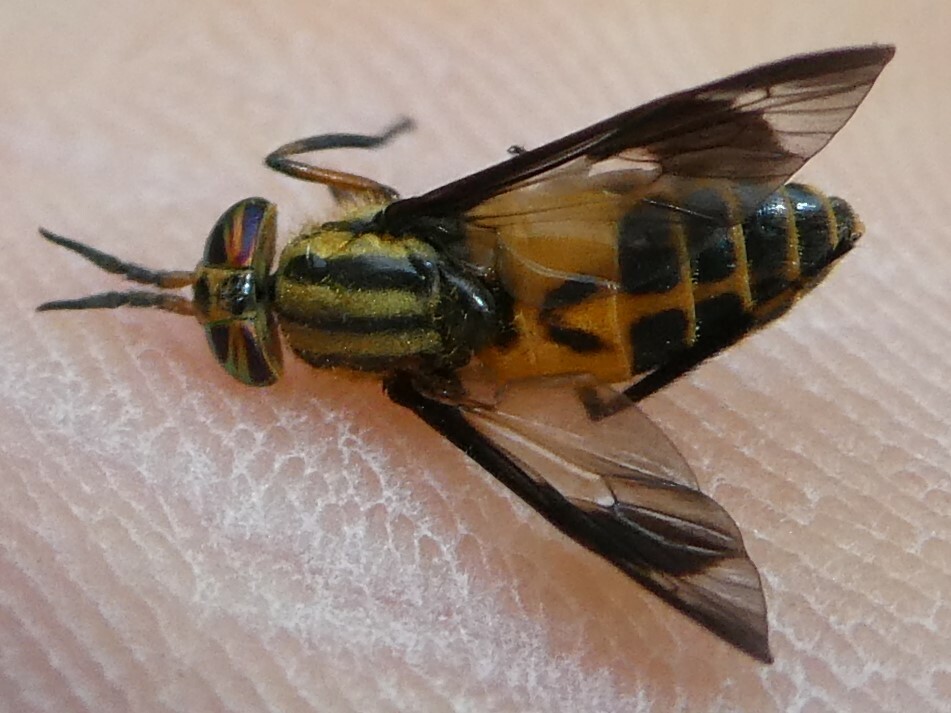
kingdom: Animalia
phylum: Arthropoda
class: Insecta
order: Diptera
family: Tabanidae
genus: Chrysops
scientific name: Chrysops geminatus
